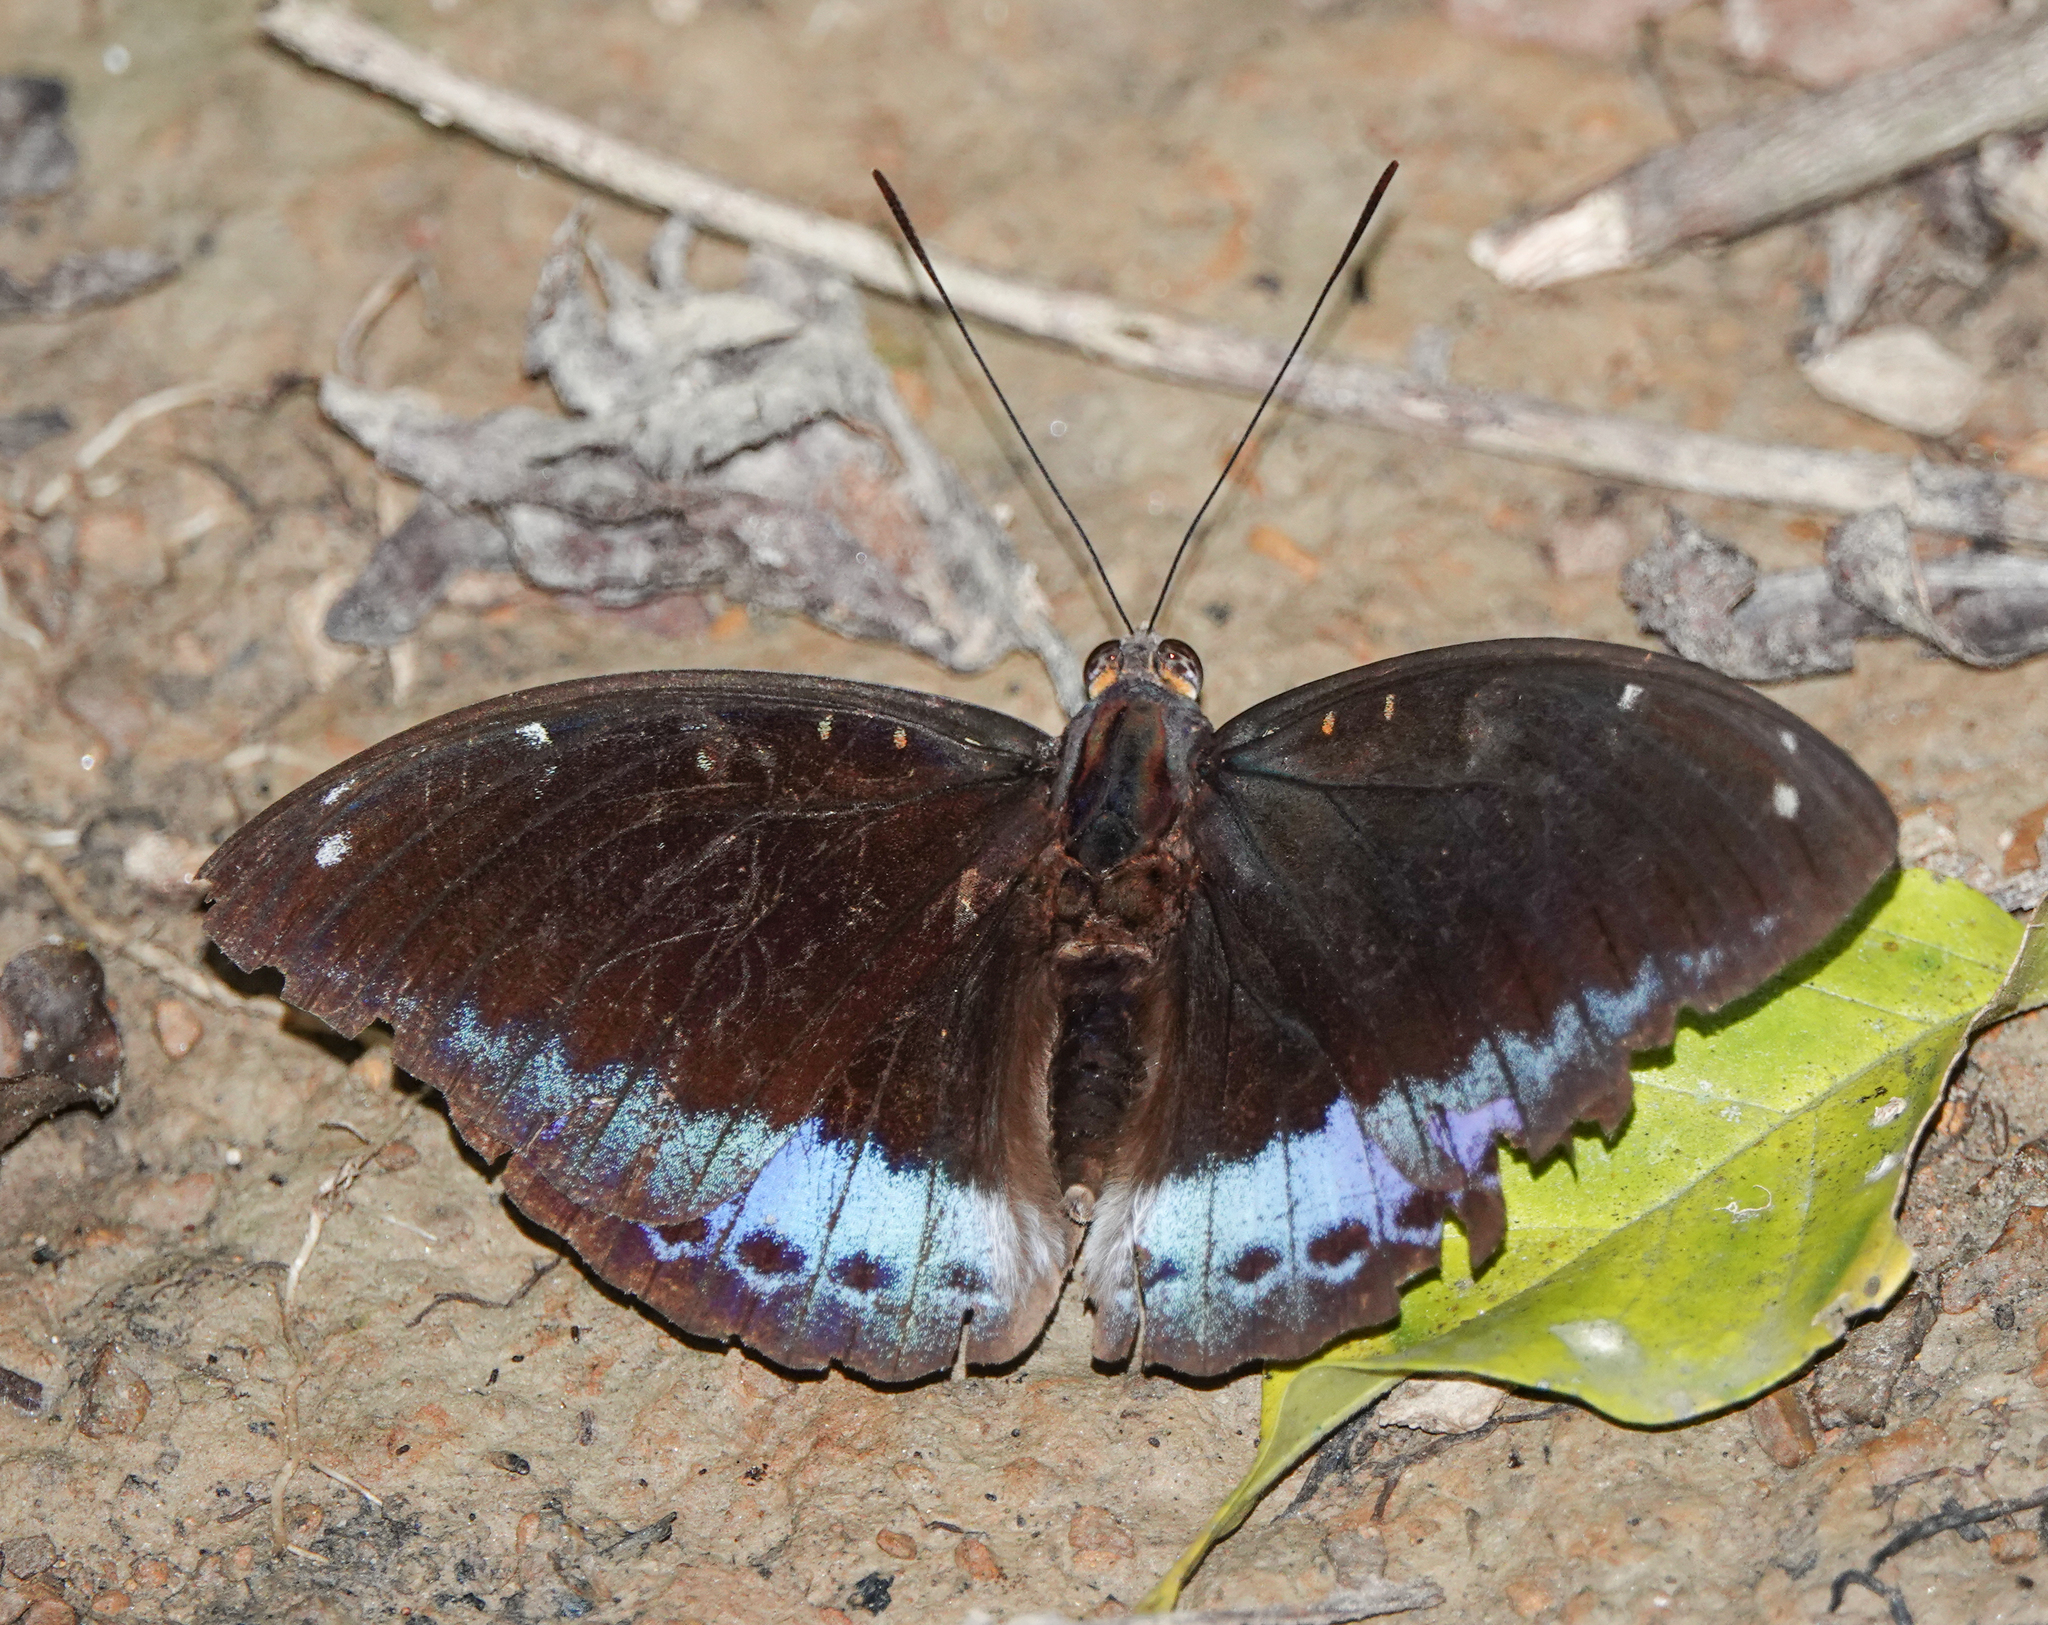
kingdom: Animalia
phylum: Arthropoda
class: Insecta
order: Lepidoptera
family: Nymphalidae
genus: Lexias
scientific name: Lexias dirtea
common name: Black-tipped archduke
